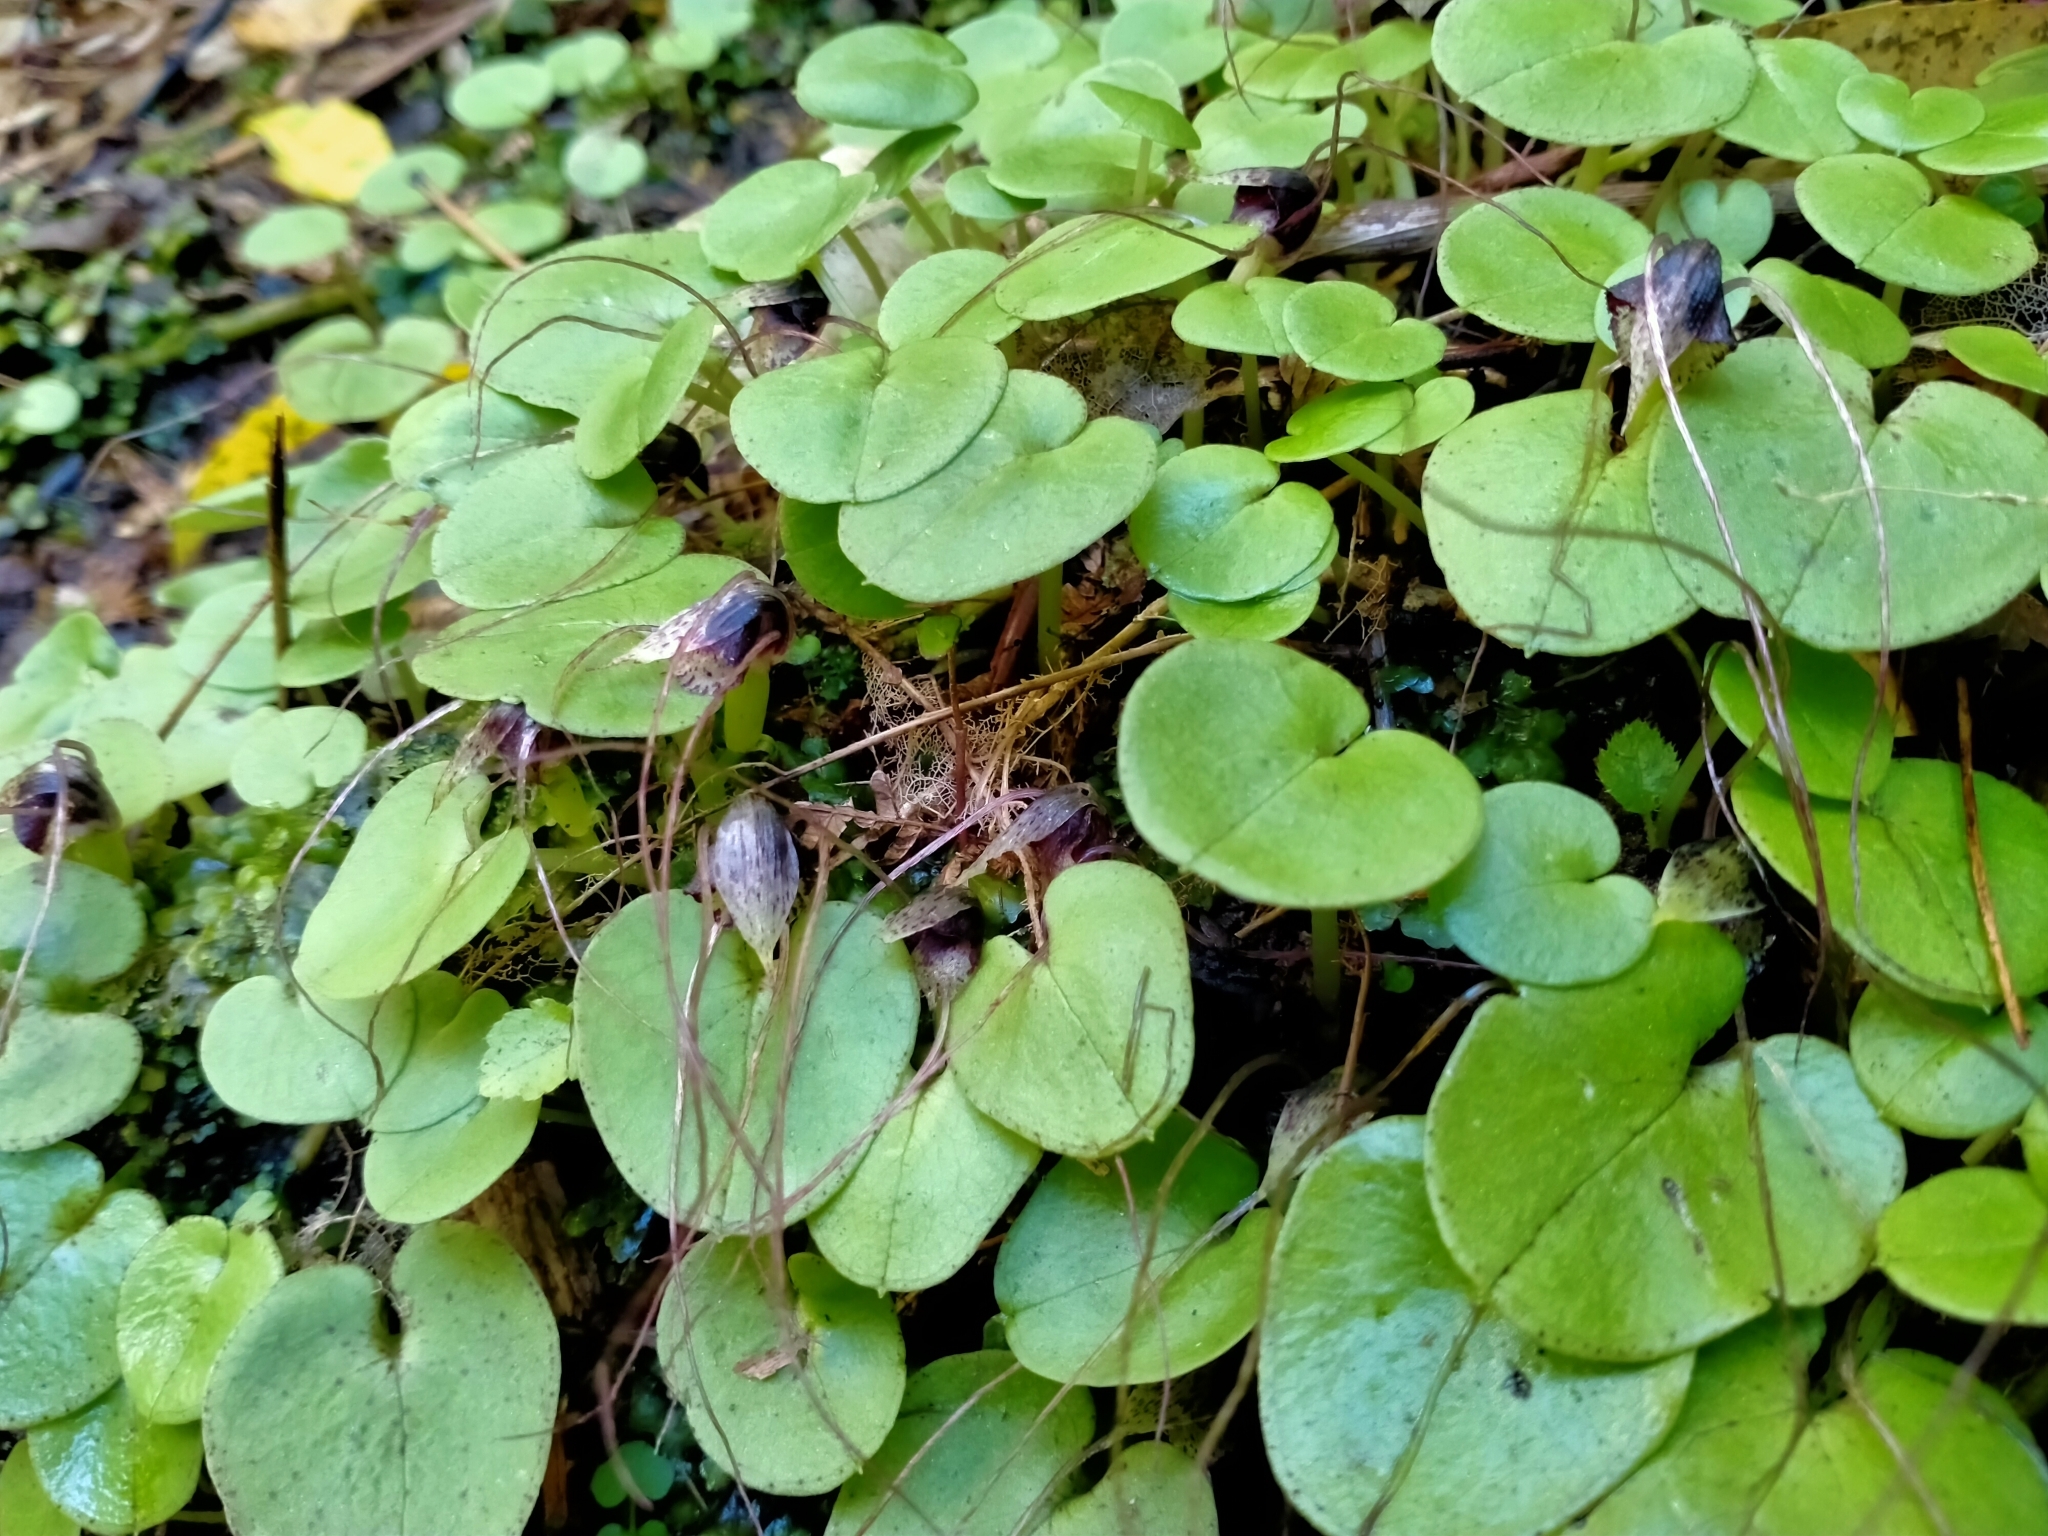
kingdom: Plantae
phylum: Tracheophyta
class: Liliopsida
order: Asparagales
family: Orchidaceae
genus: Corybas
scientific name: Corybas iridescens
